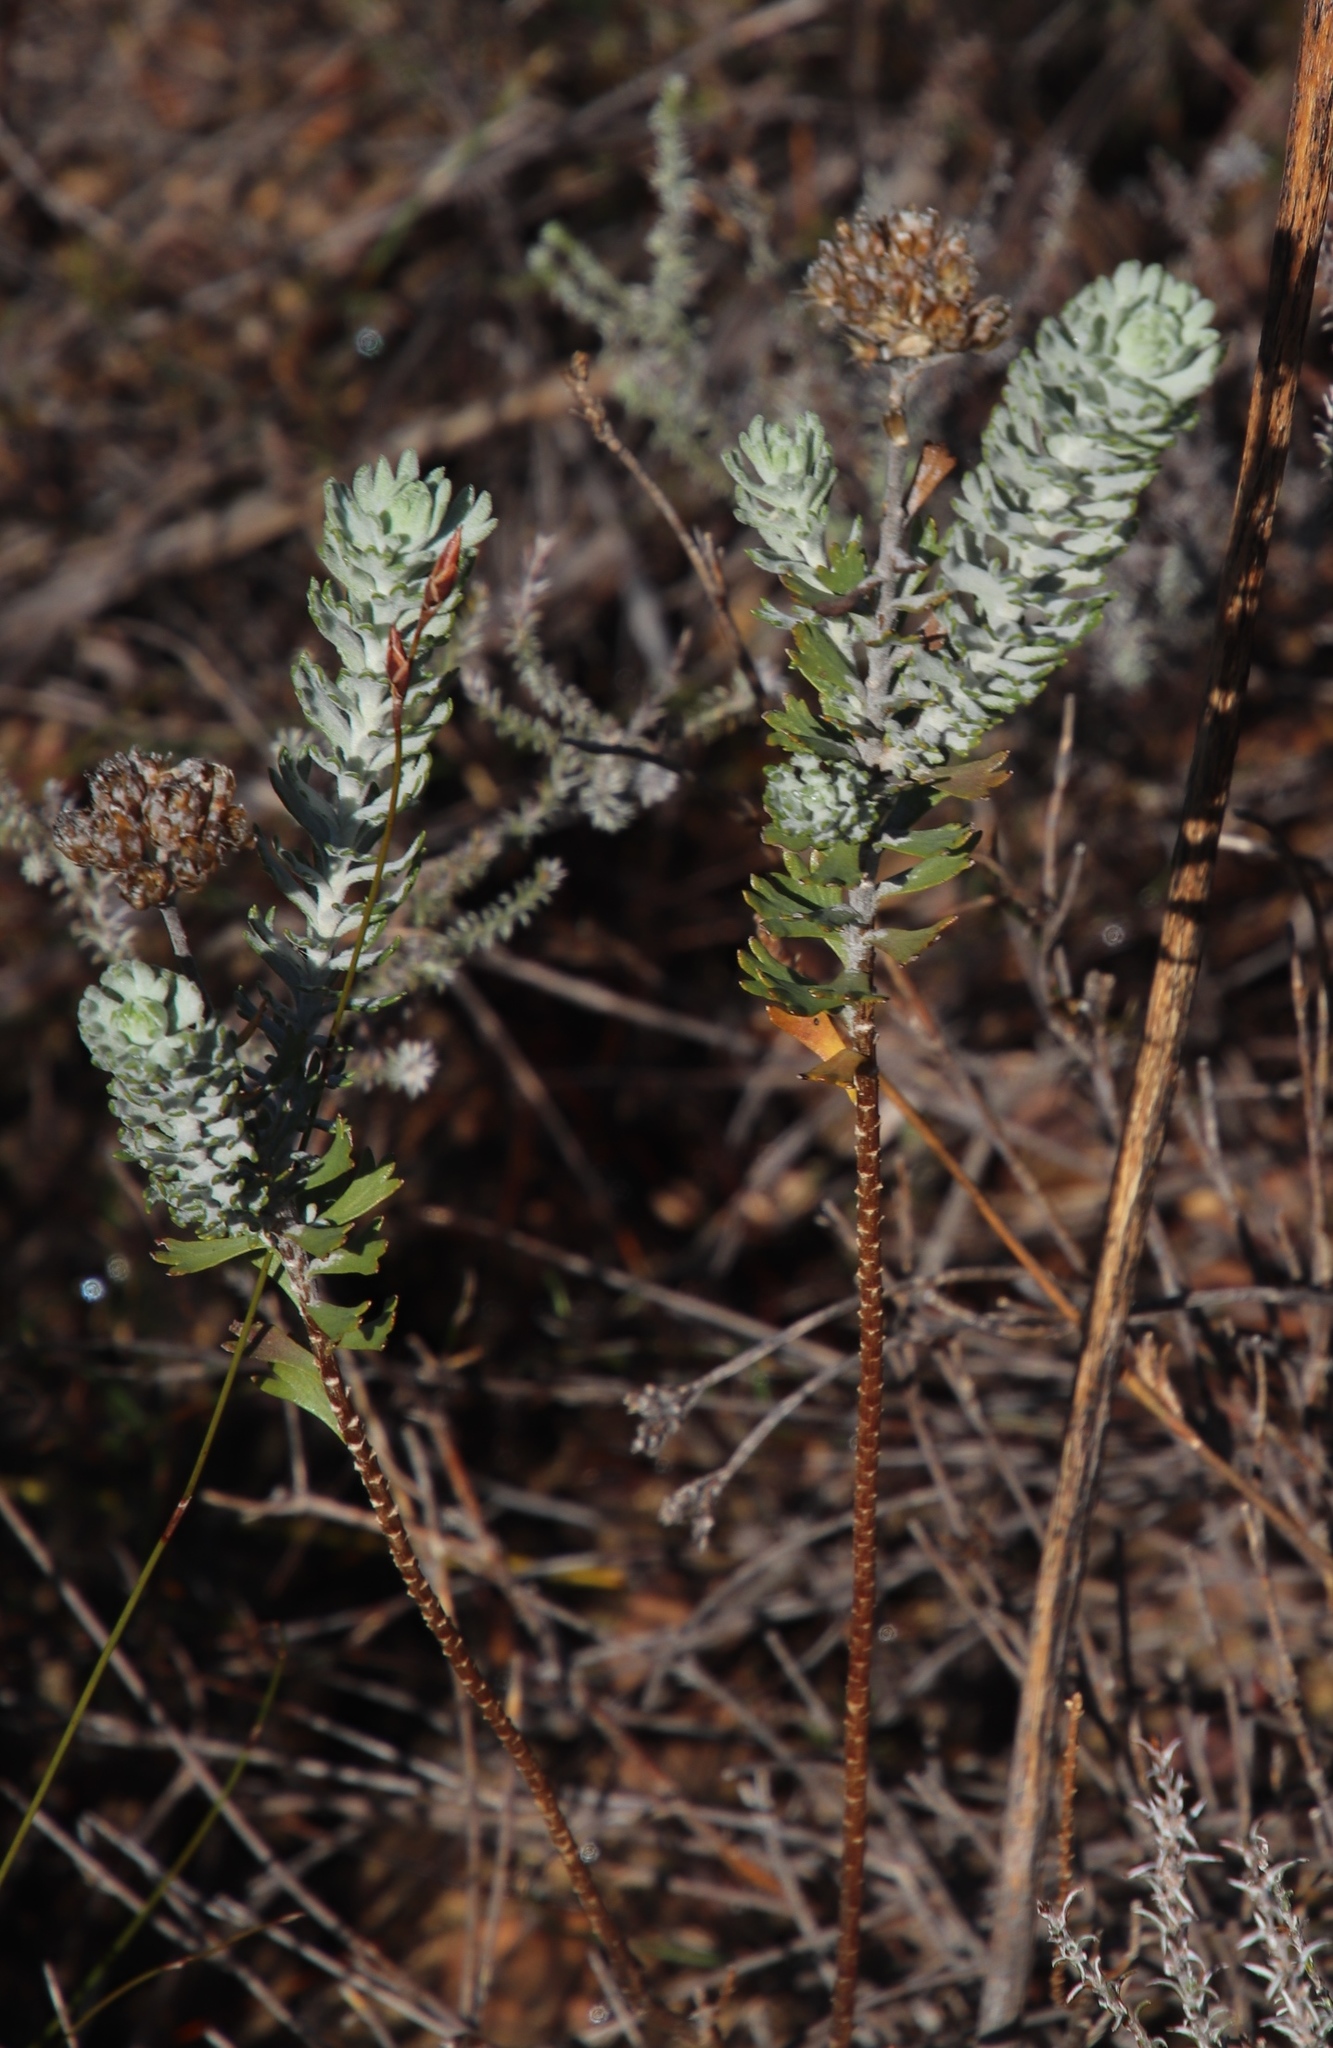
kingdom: Plantae
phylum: Tracheophyta
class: Magnoliopsida
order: Asterales
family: Asteraceae
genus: Athanasia
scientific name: Athanasia trifurcata
